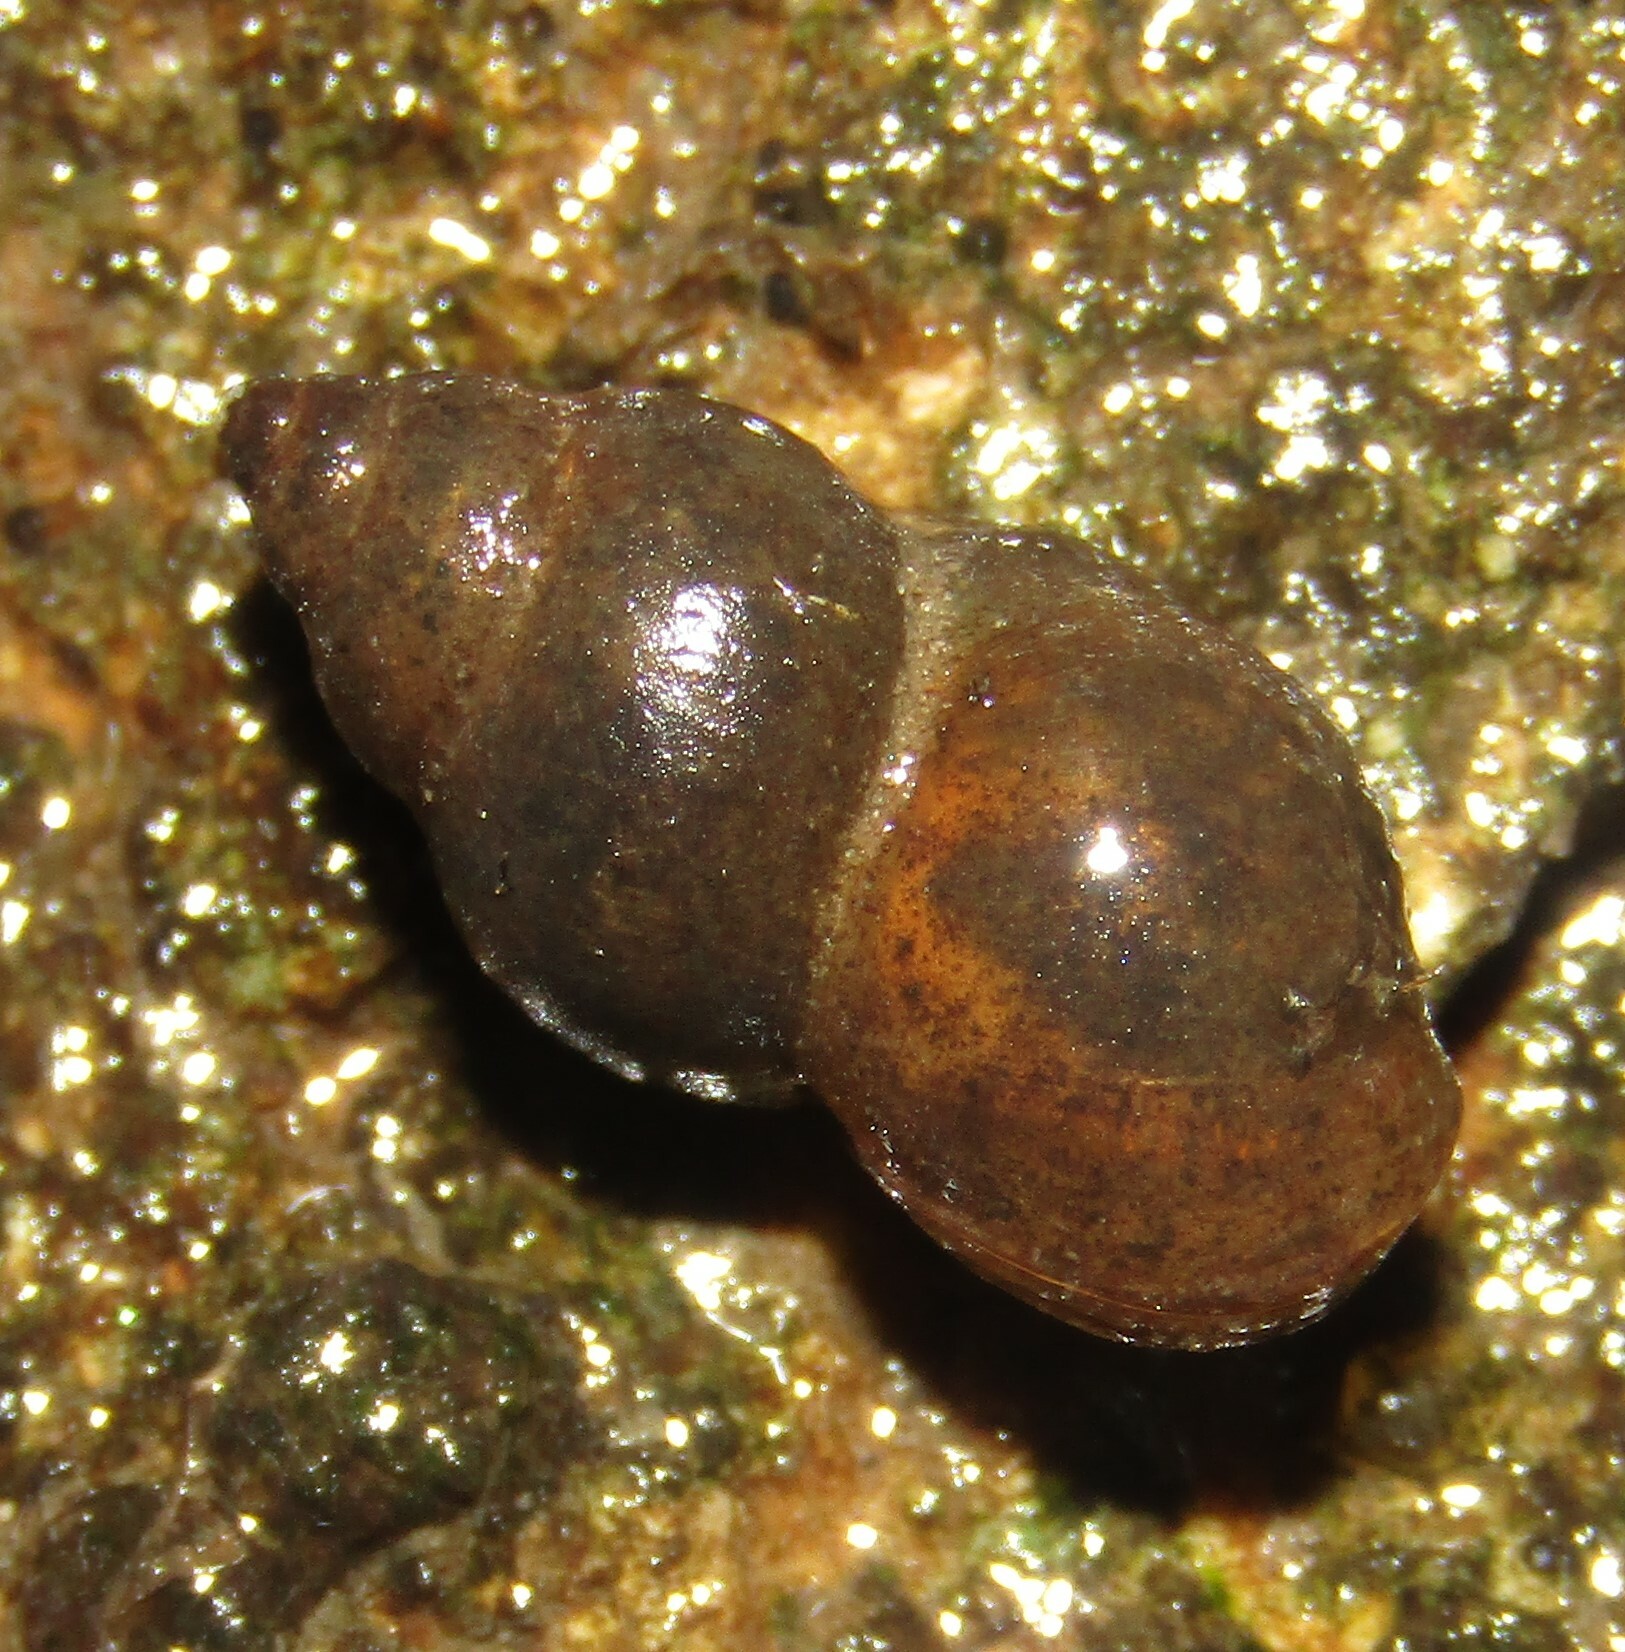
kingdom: Animalia
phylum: Mollusca
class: Gastropoda
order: Littorinimorpha
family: Bithyniidae
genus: Bithynia
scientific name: Bithynia tentaculata
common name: Common bithynia
